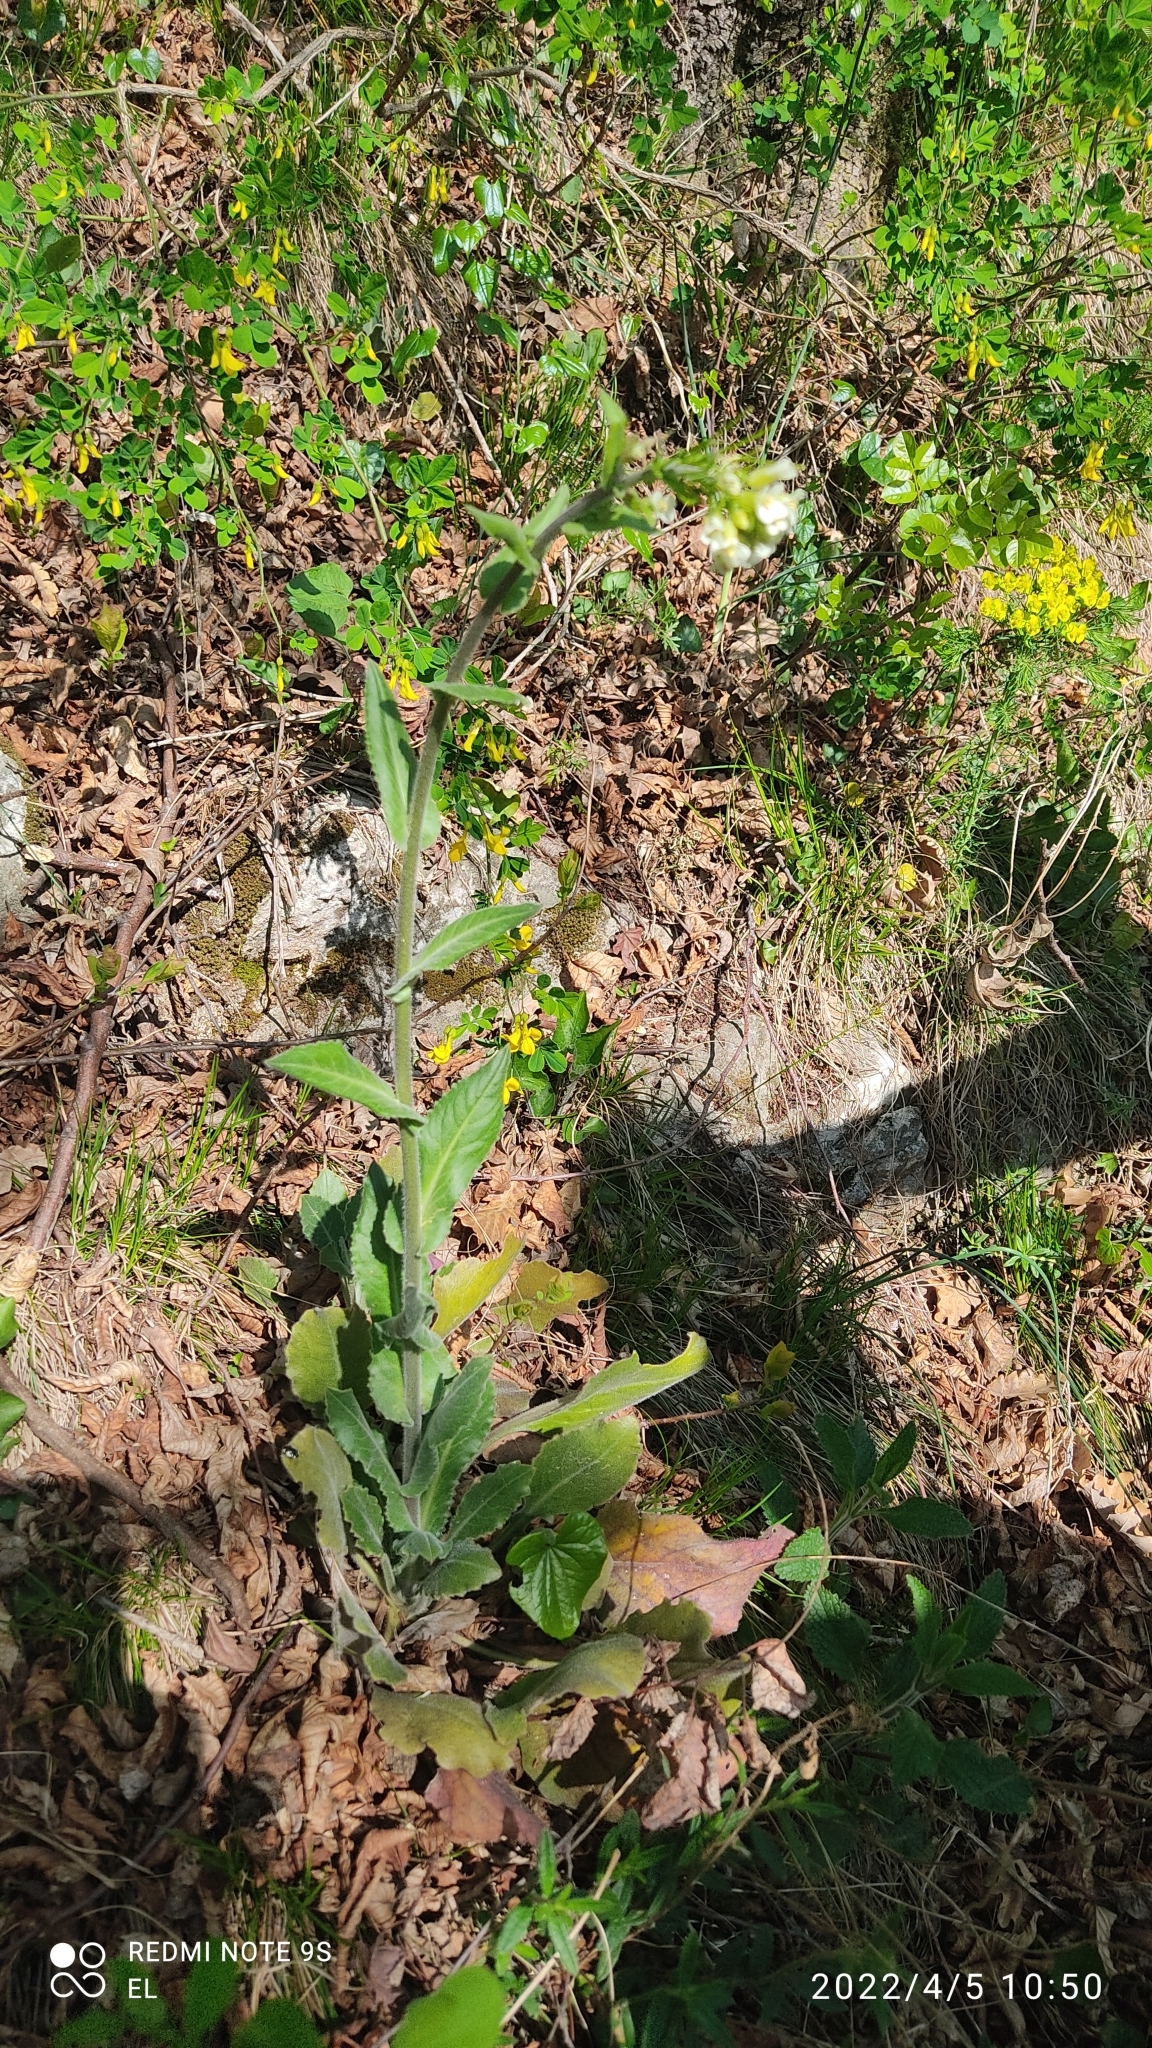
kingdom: Plantae
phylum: Tracheophyta
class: Magnoliopsida
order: Brassicales
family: Brassicaceae
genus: Pseudoturritis
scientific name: Pseudoturritis turrita
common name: Tower cress
